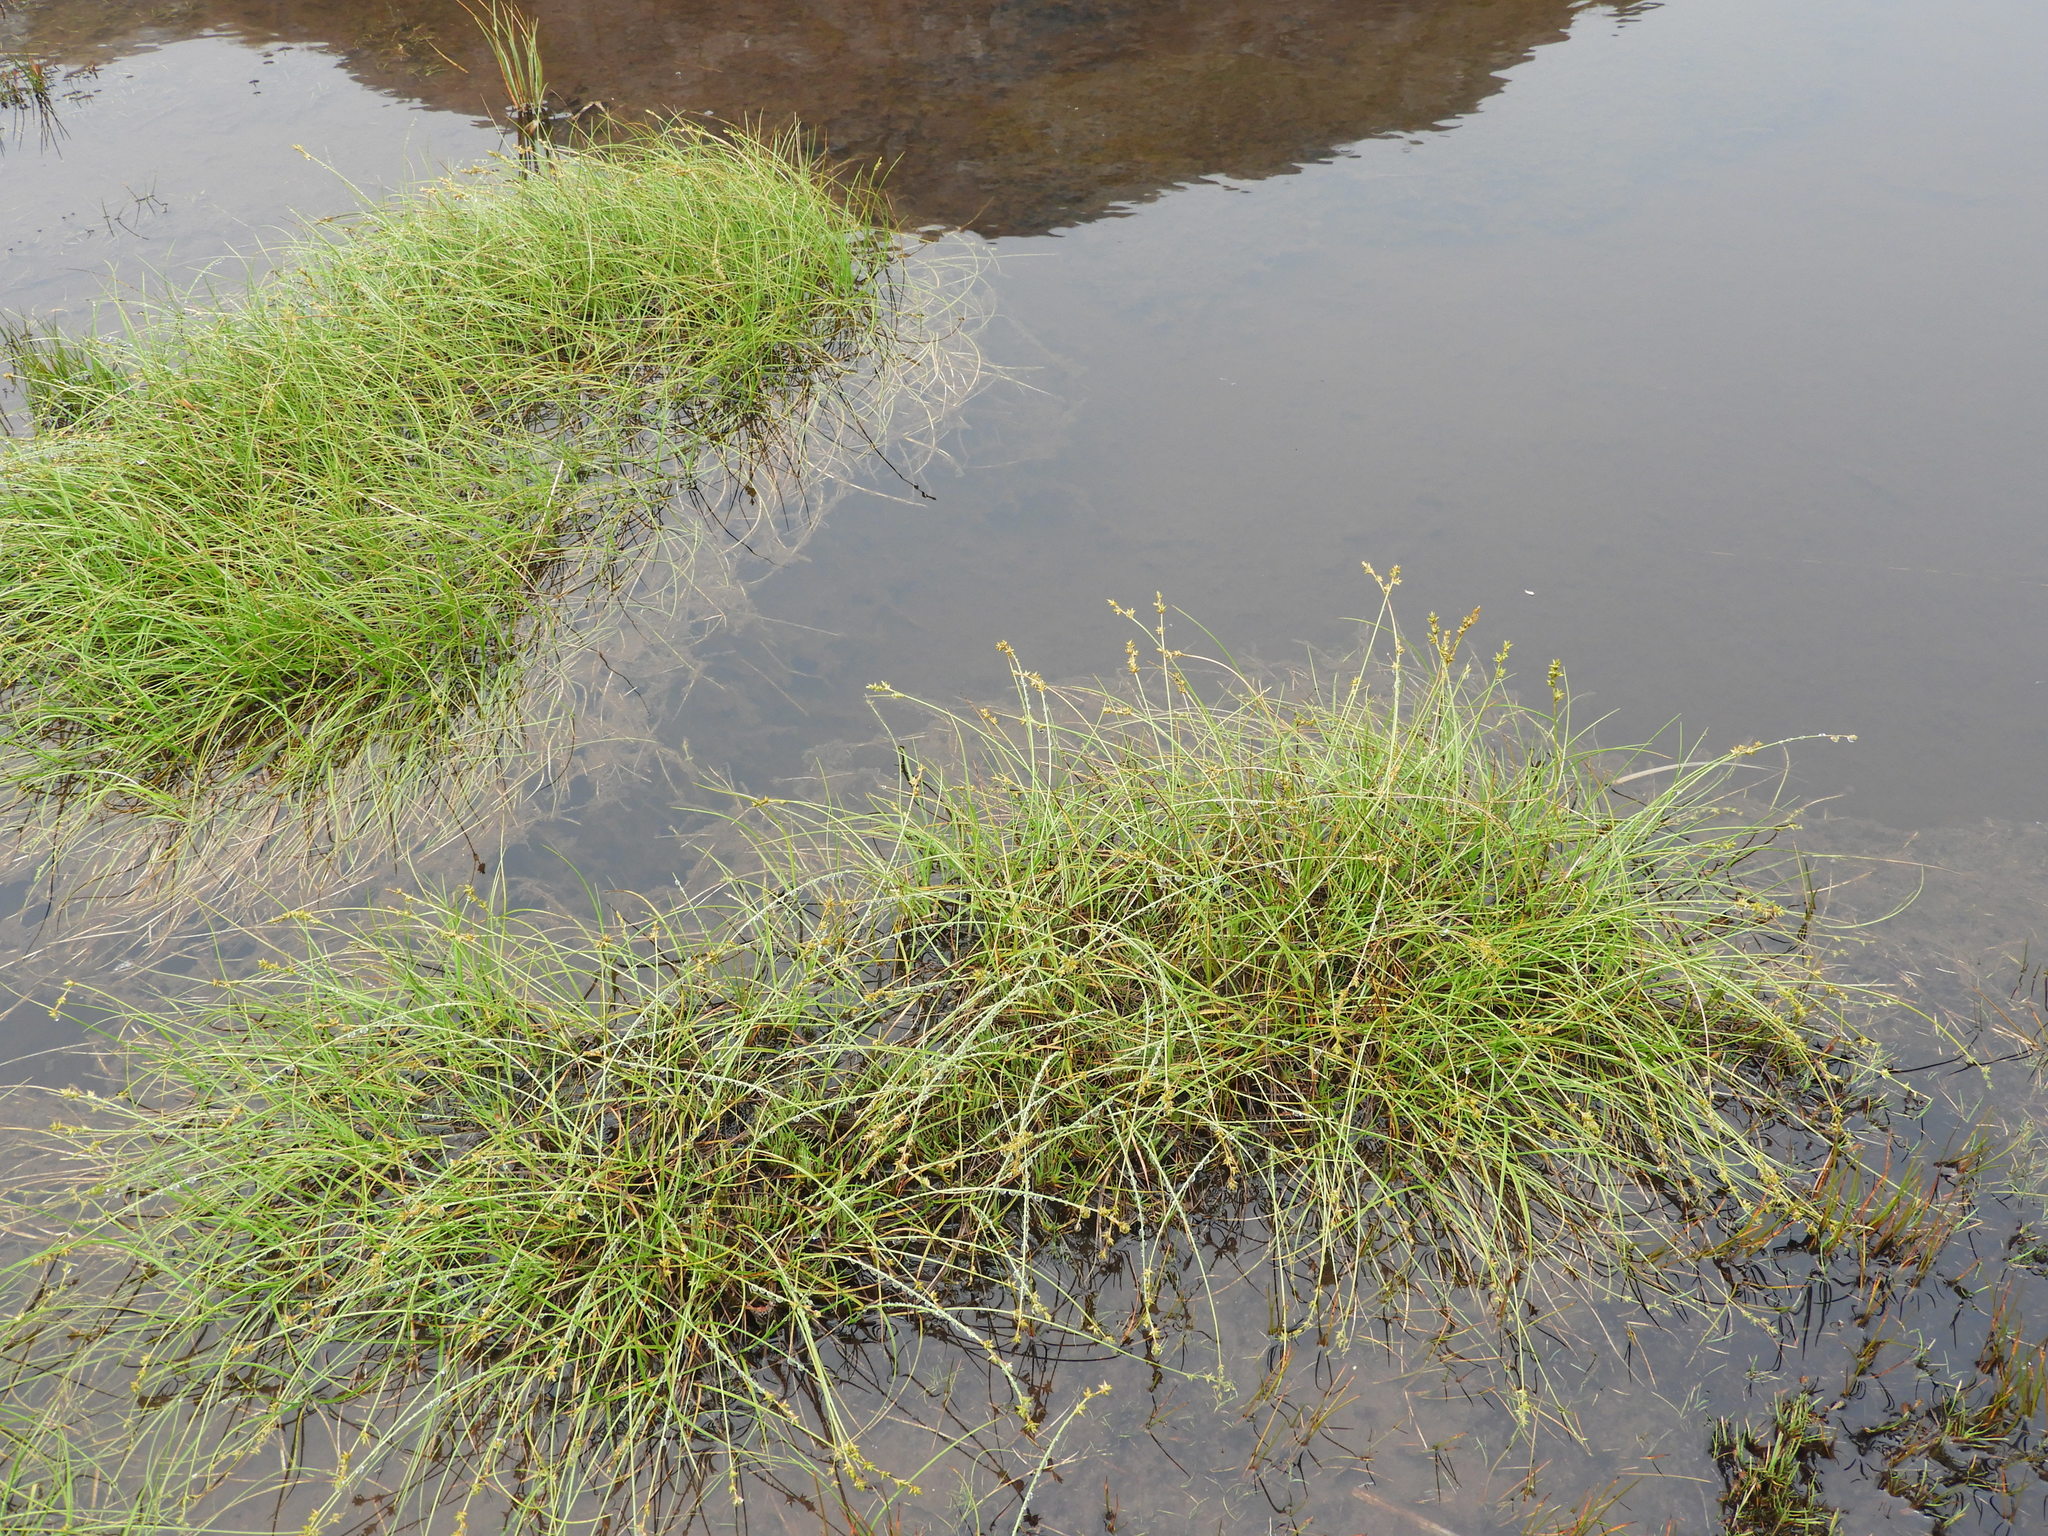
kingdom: Plantae
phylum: Tracheophyta
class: Liliopsida
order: Poales
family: Cyperaceae
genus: Carex
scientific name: Carex echinata
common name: Star sedge
